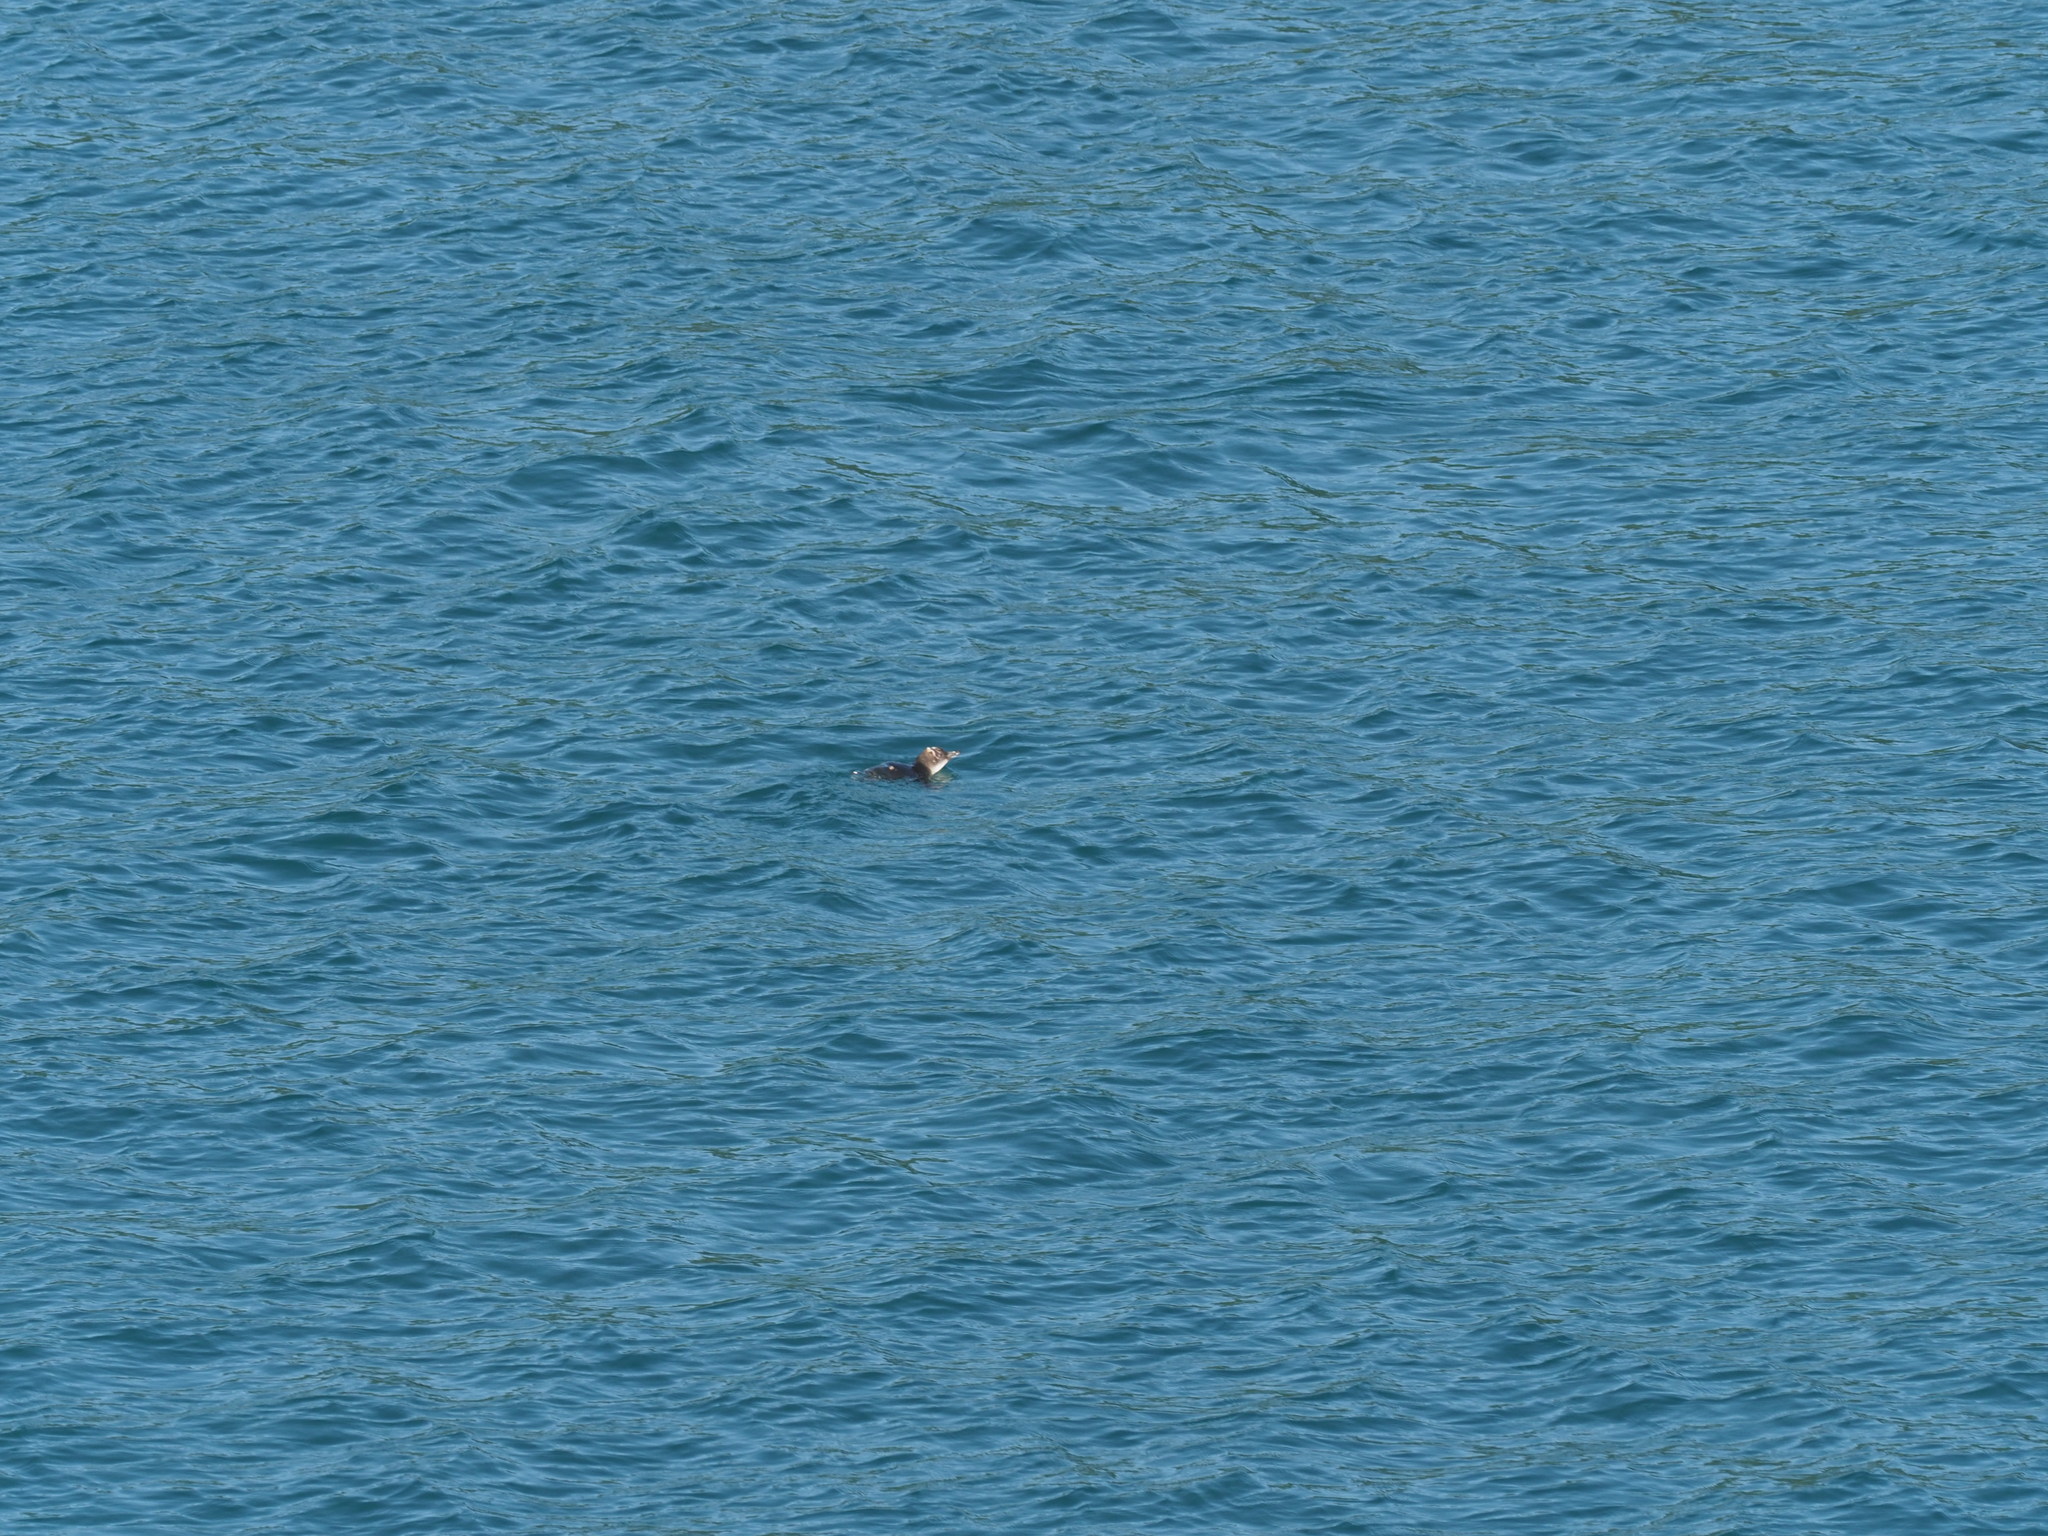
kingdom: Animalia
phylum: Chordata
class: Aves
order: Sphenisciformes
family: Spheniscidae
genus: Eudyptula
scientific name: Eudyptula minor
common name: Little penguin
